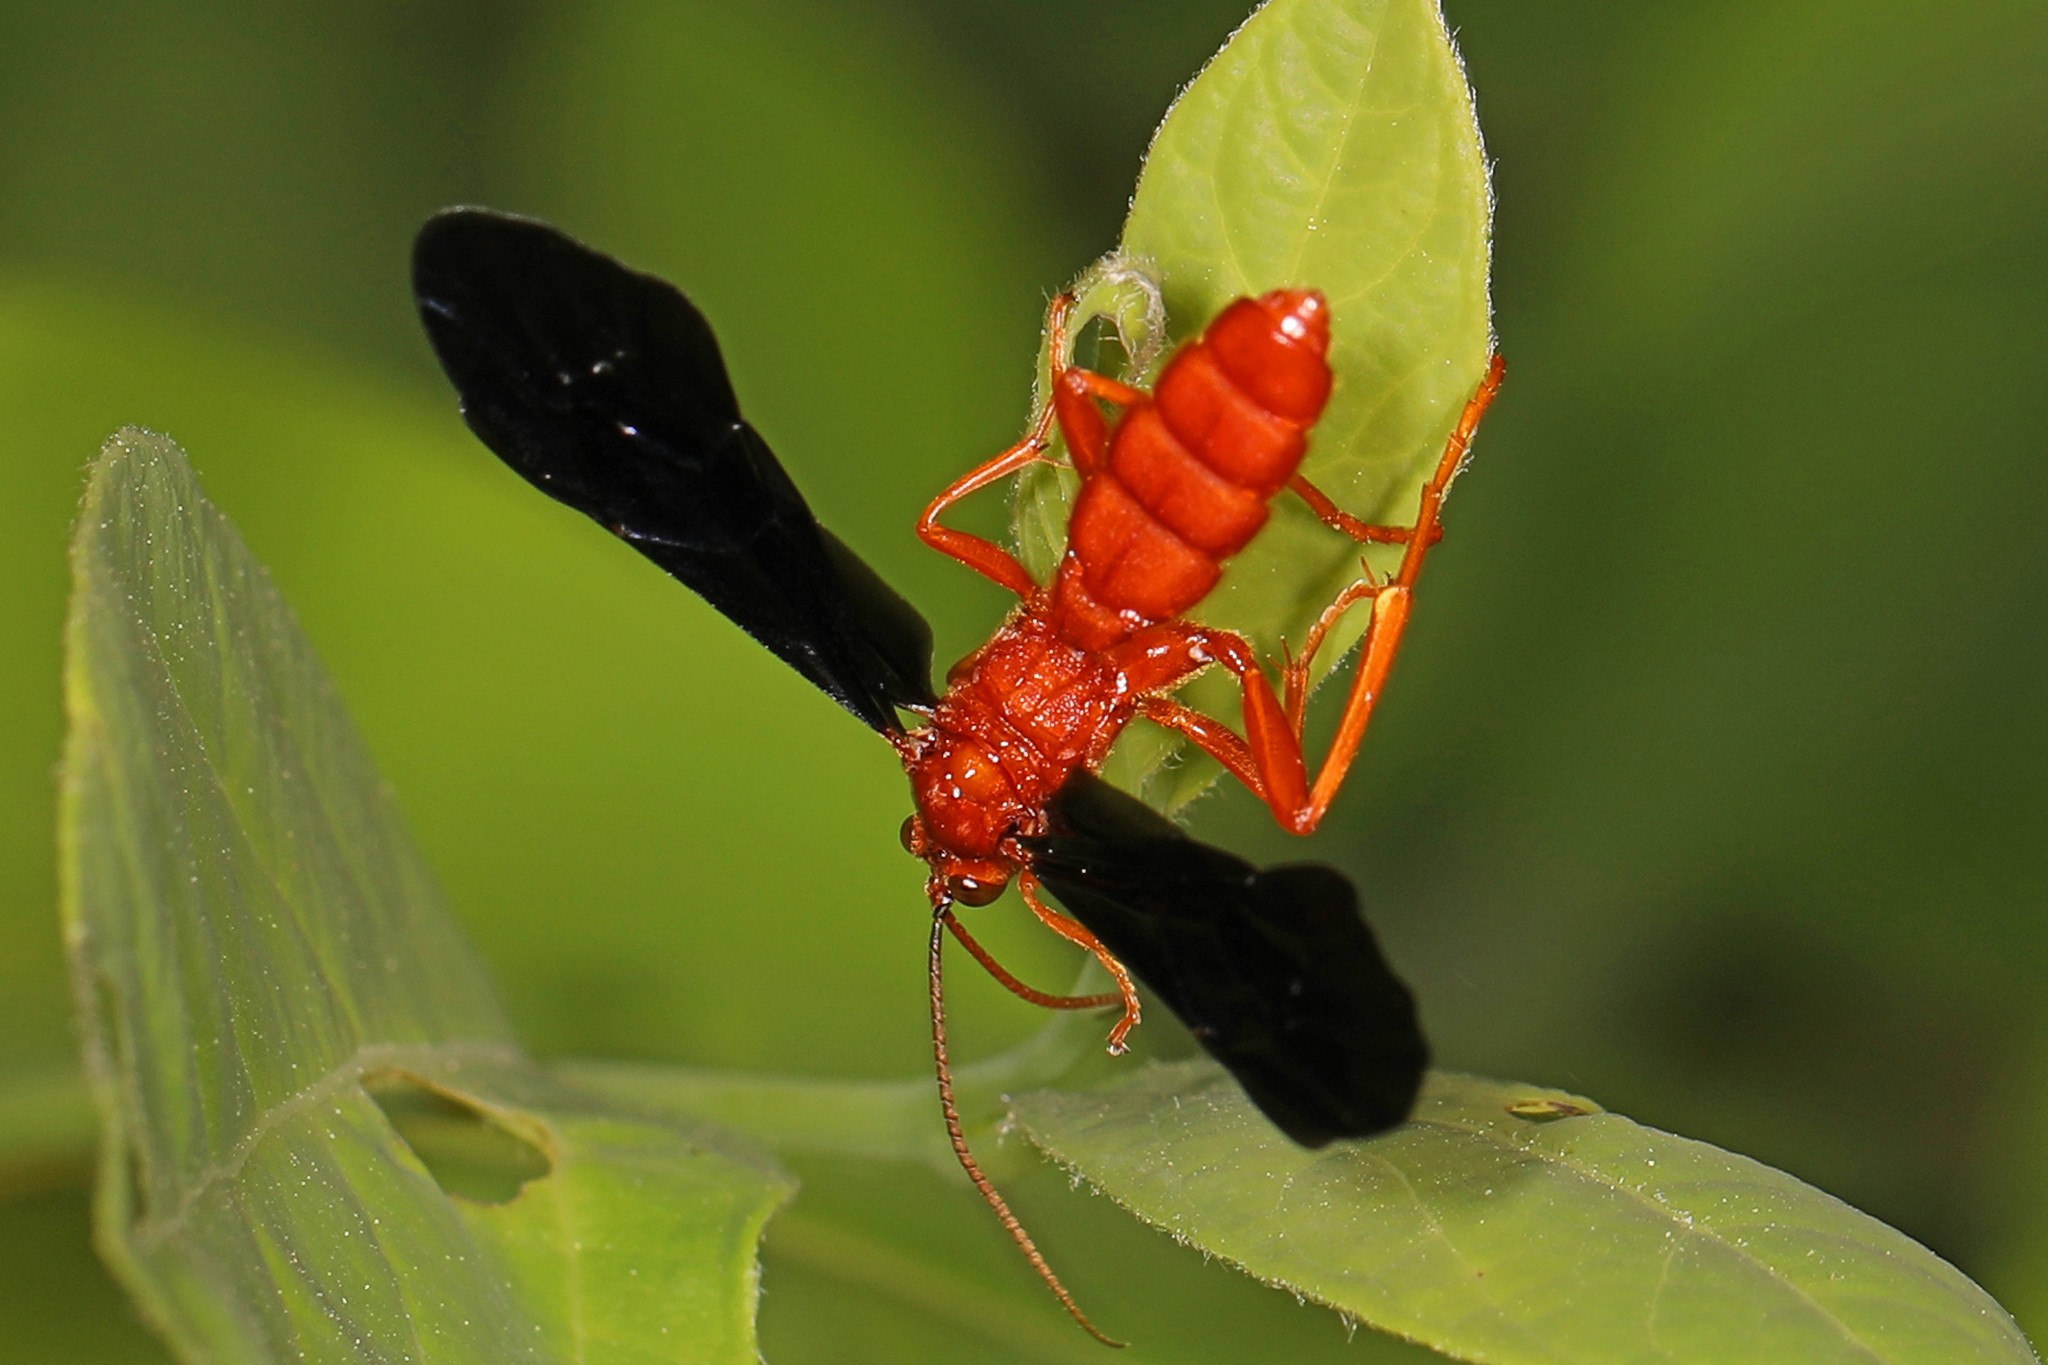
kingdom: Animalia
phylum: Arthropoda
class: Insecta
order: Hymenoptera
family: Ichneumonidae
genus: Trogus
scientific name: Trogus pennator
